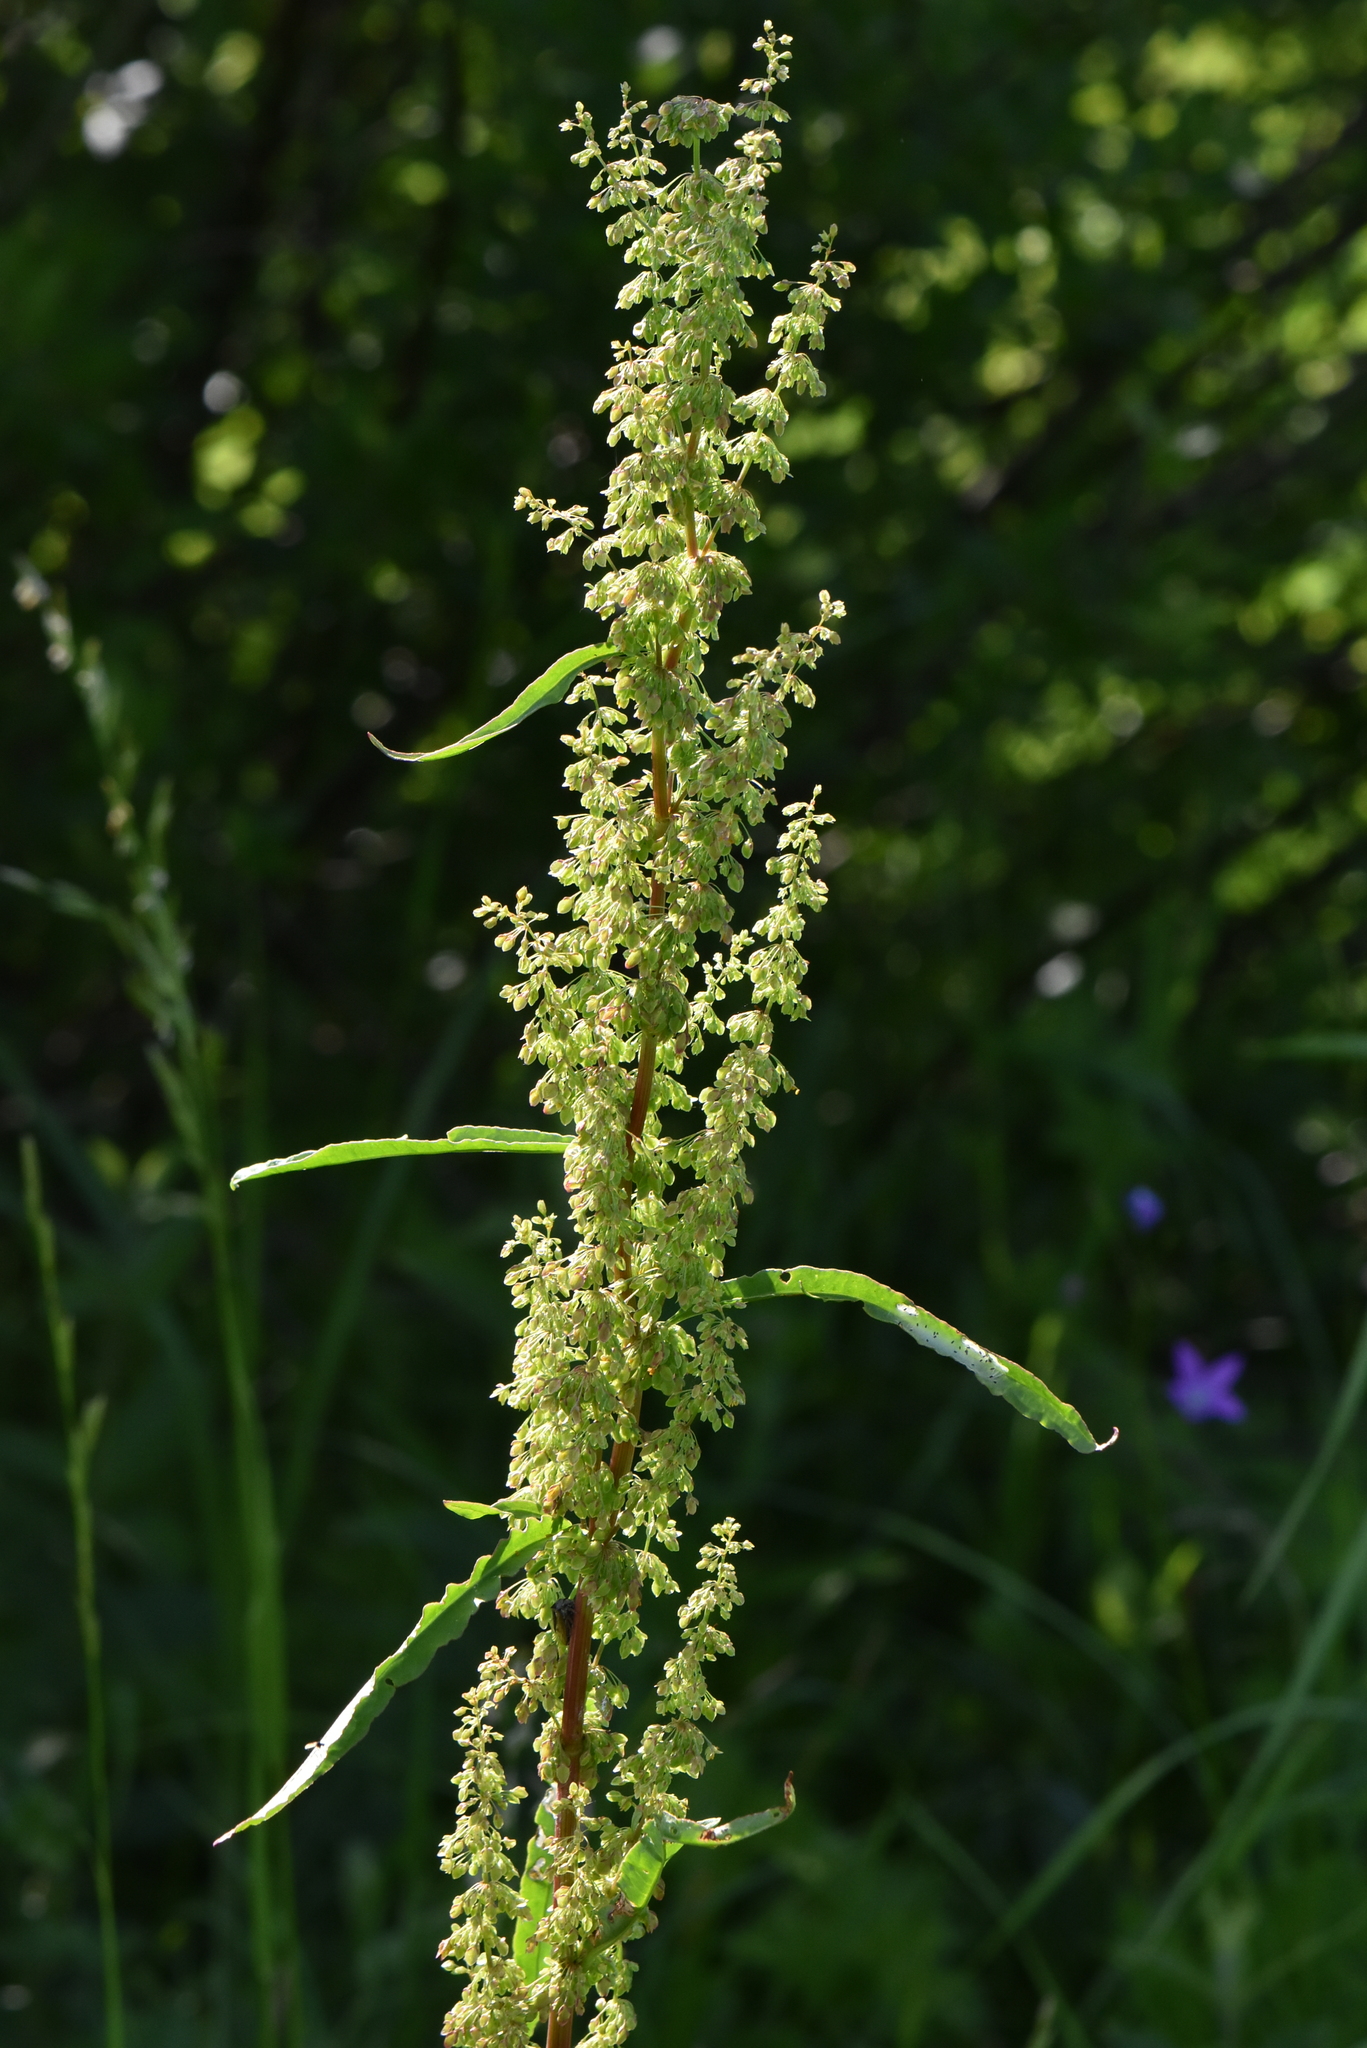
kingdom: Plantae
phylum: Tracheophyta
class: Magnoliopsida
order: Caryophyllales
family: Polygonaceae
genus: Rumex
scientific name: Rumex crispus
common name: Curled dock
